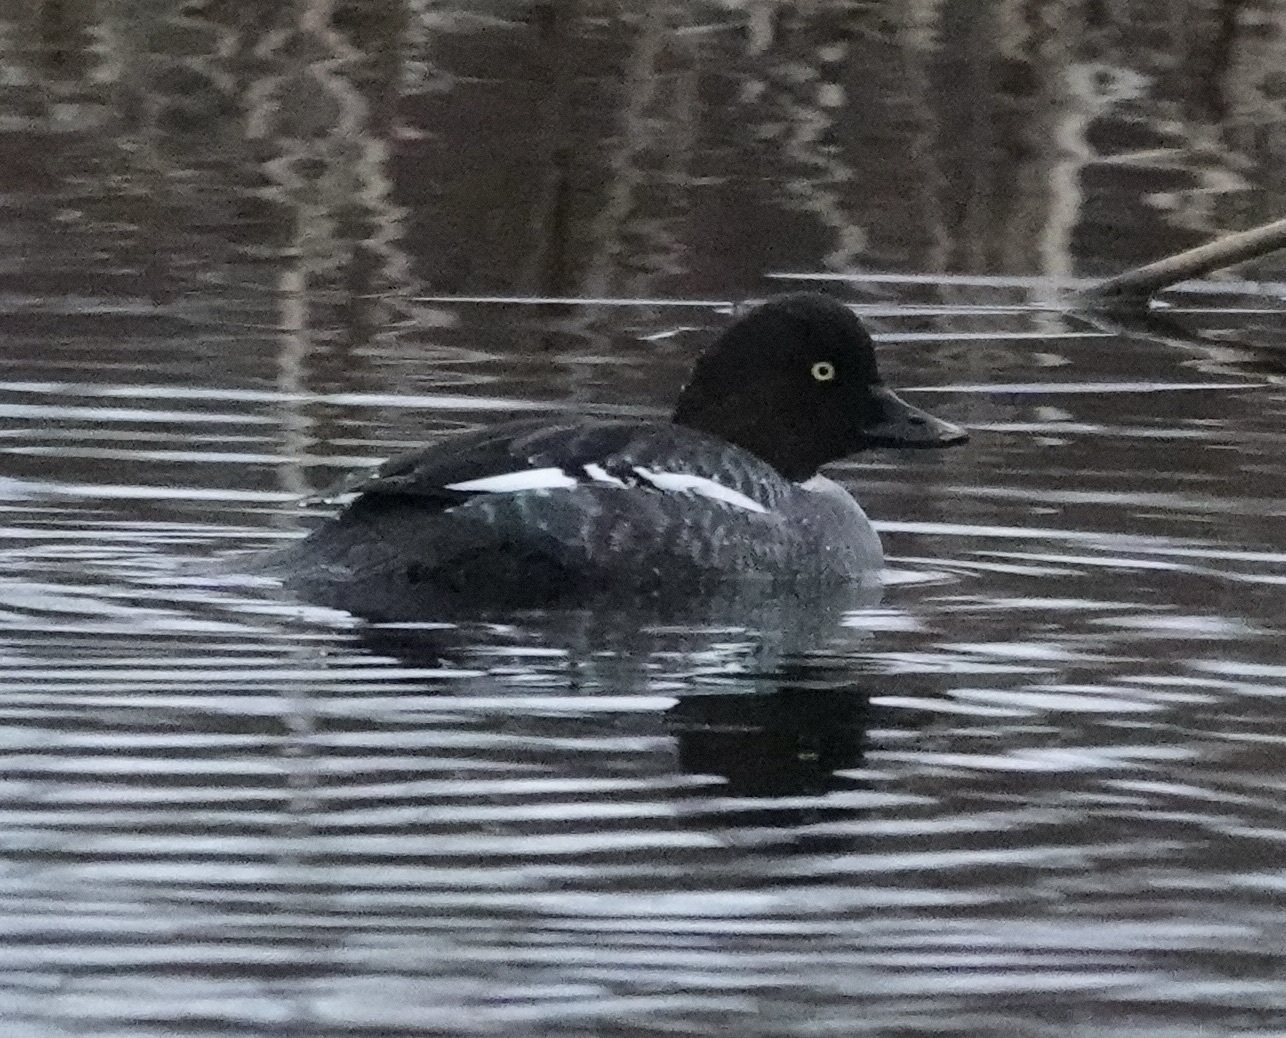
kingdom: Animalia
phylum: Chordata
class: Aves
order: Anseriformes
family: Anatidae
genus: Bucephala
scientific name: Bucephala clangula
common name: Common goldeneye
